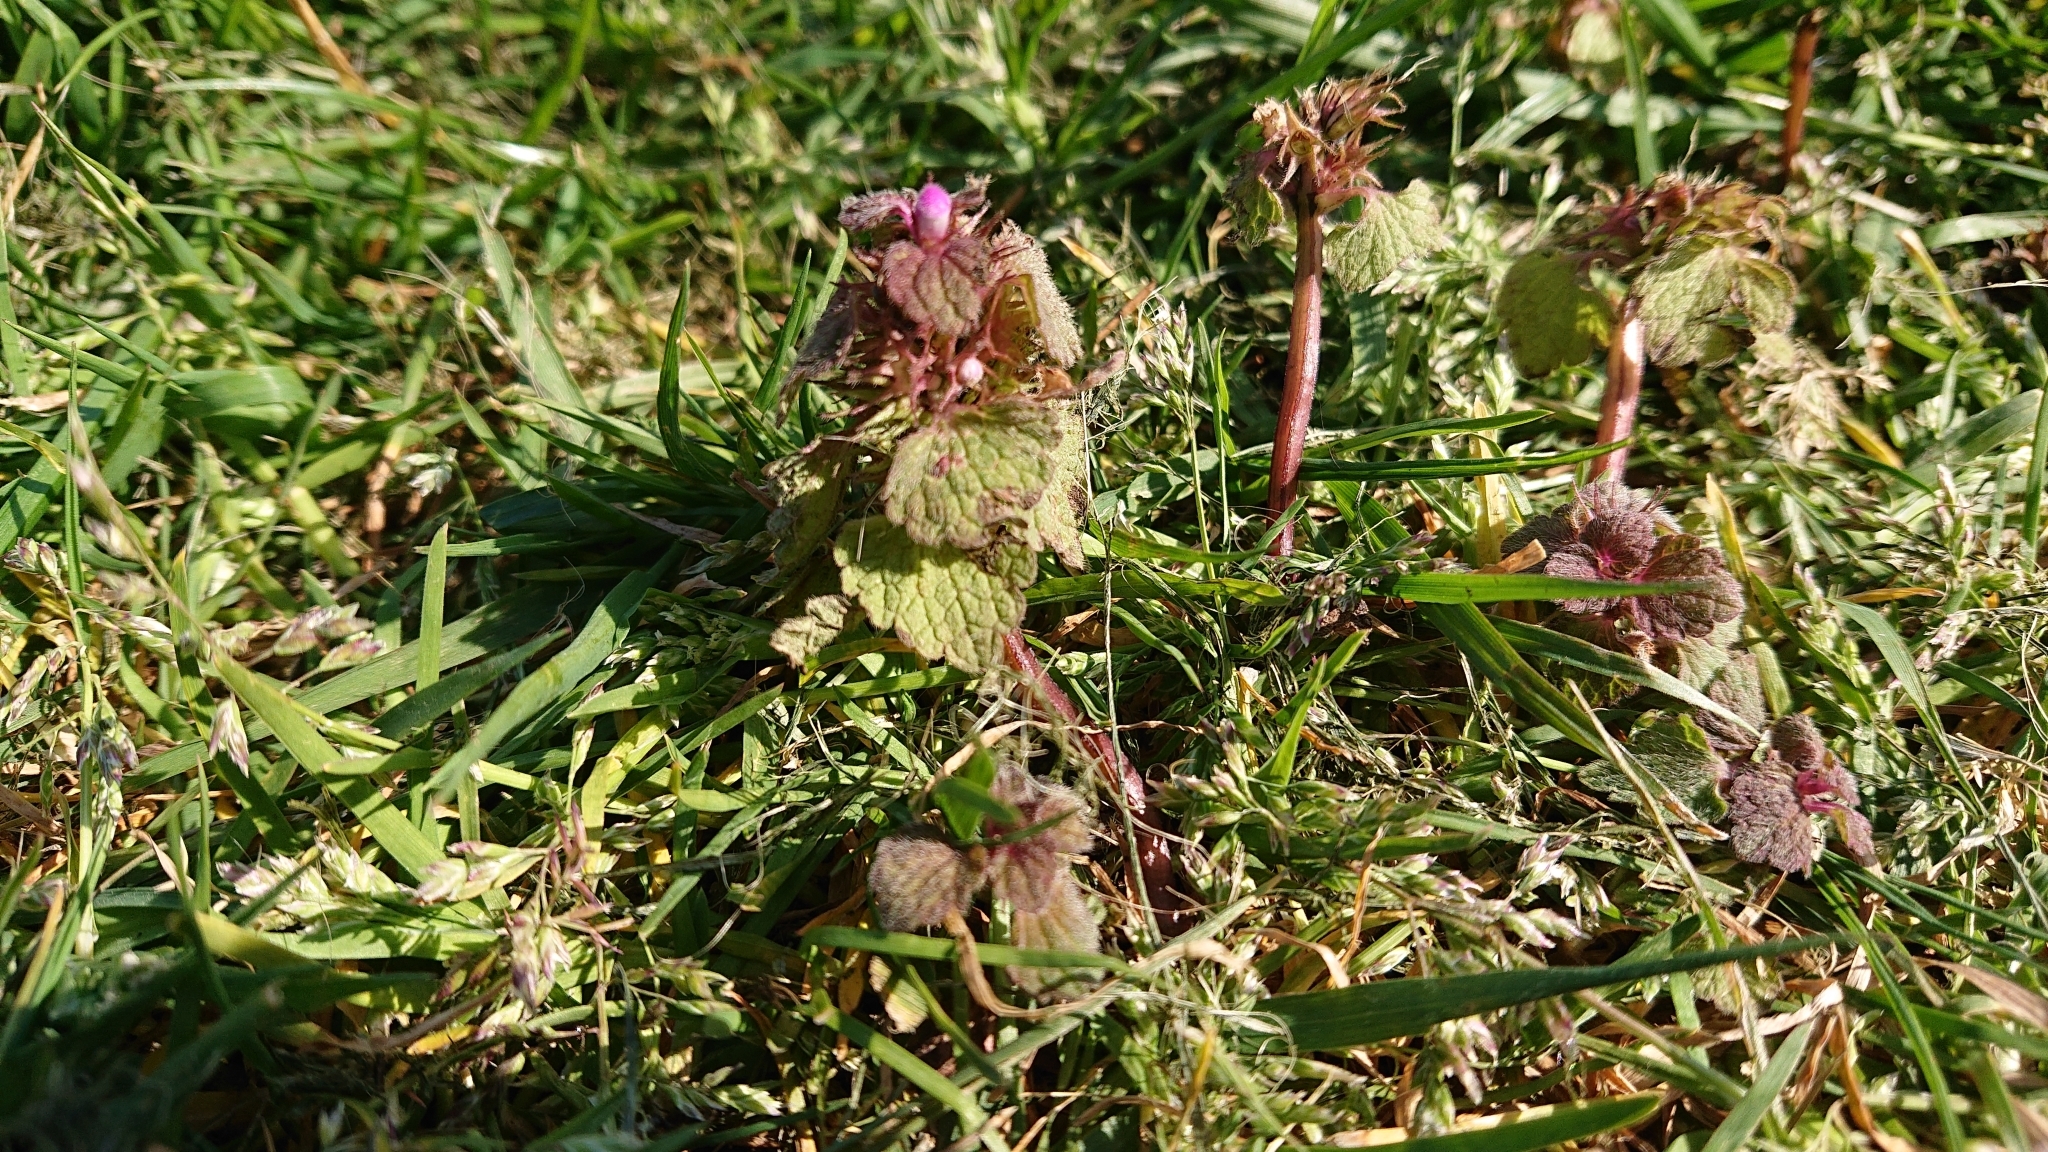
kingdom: Plantae
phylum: Tracheophyta
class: Magnoliopsida
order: Lamiales
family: Lamiaceae
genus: Lamium
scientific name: Lamium purpureum
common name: Red dead-nettle
